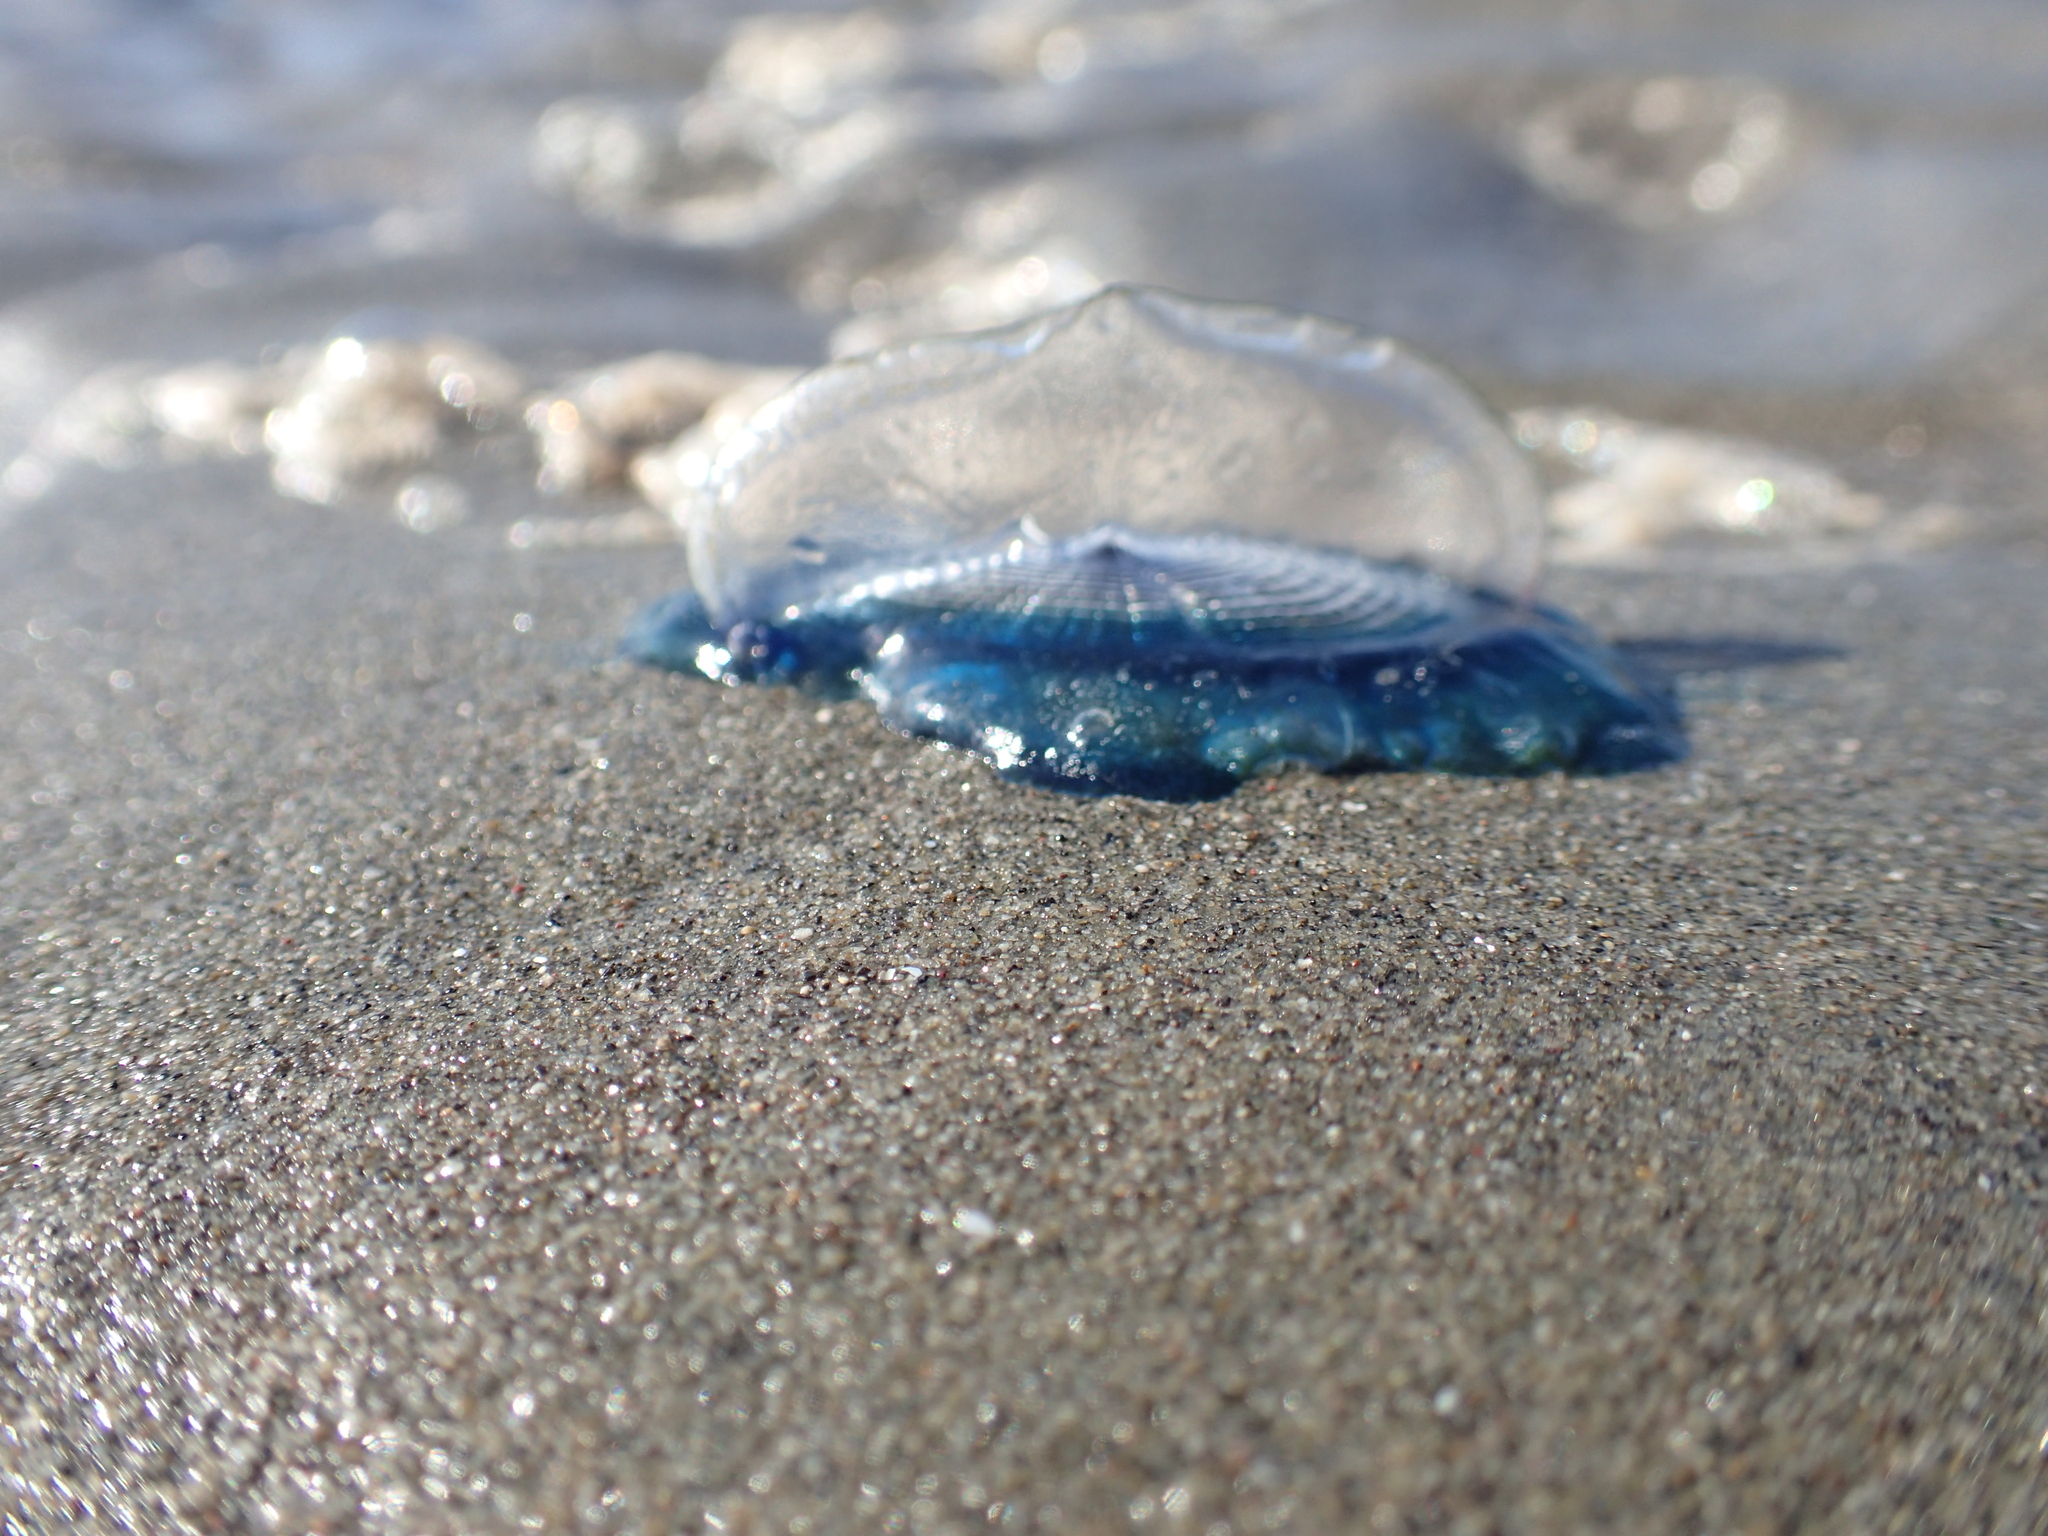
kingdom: Animalia
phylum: Cnidaria
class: Hydrozoa
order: Anthoathecata
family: Porpitidae
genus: Velella
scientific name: Velella velella
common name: By-the-wind-sailor
